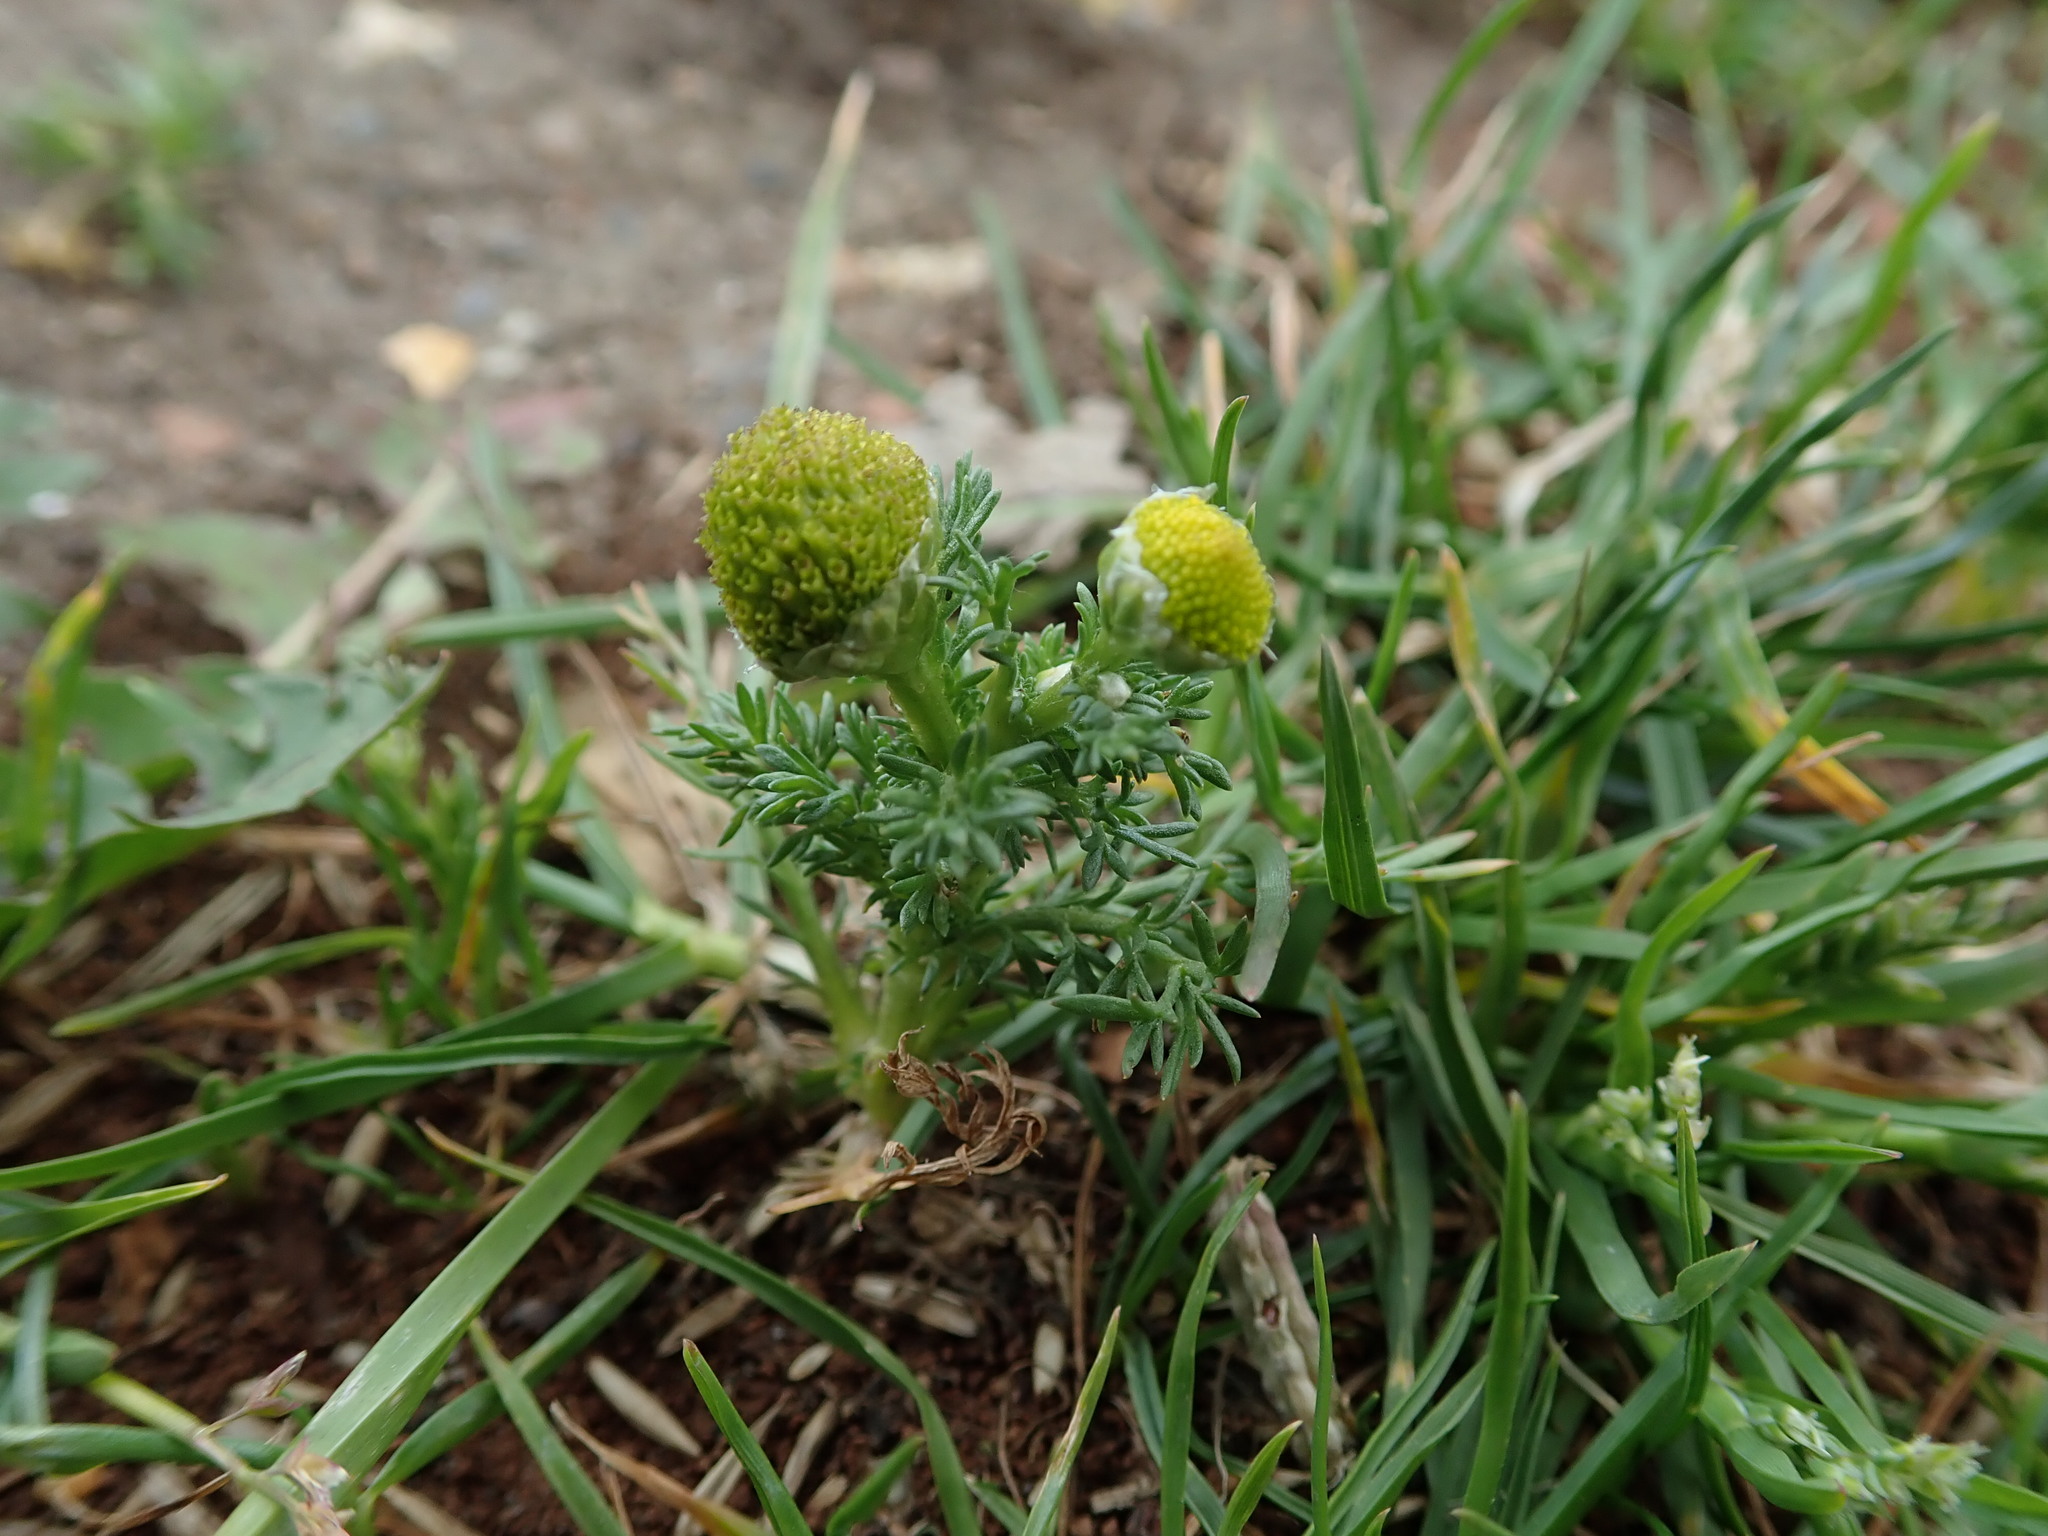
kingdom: Plantae
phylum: Tracheophyta
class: Magnoliopsida
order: Asterales
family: Asteraceae
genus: Matricaria
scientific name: Matricaria discoidea
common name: Disc mayweed
